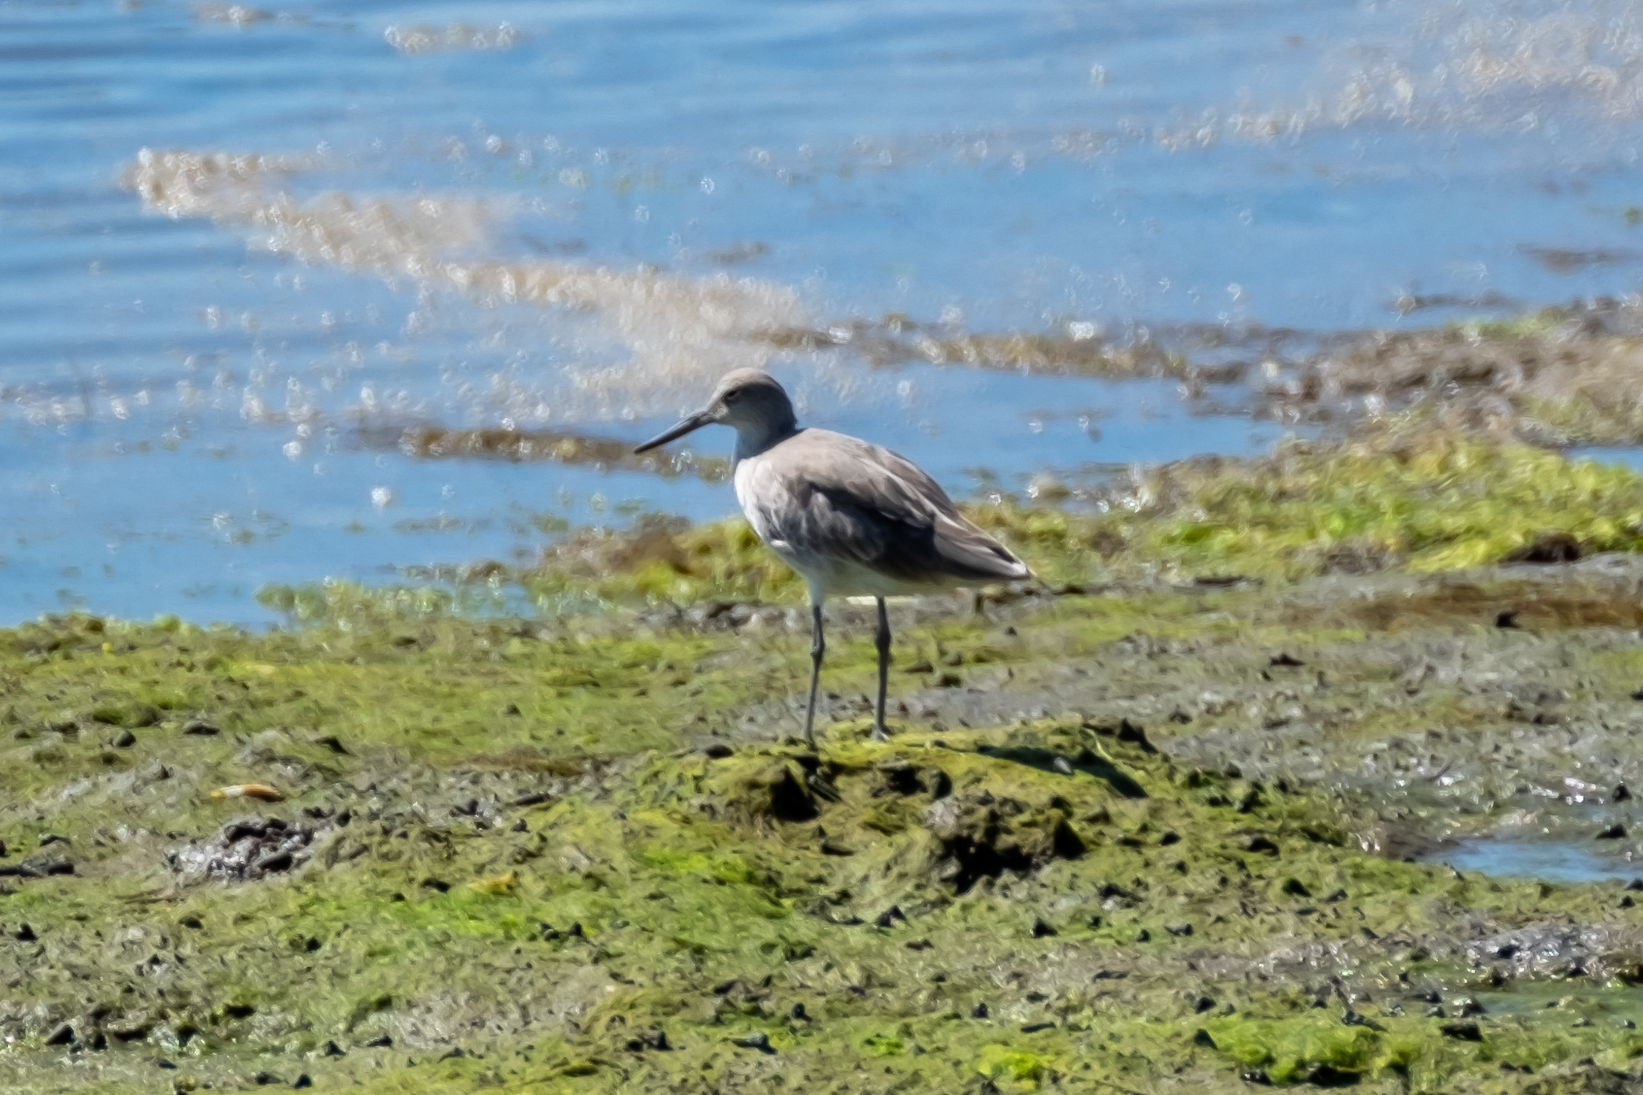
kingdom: Animalia
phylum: Chordata
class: Aves
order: Charadriiformes
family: Scolopacidae
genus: Tringa
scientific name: Tringa semipalmata
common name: Willet
